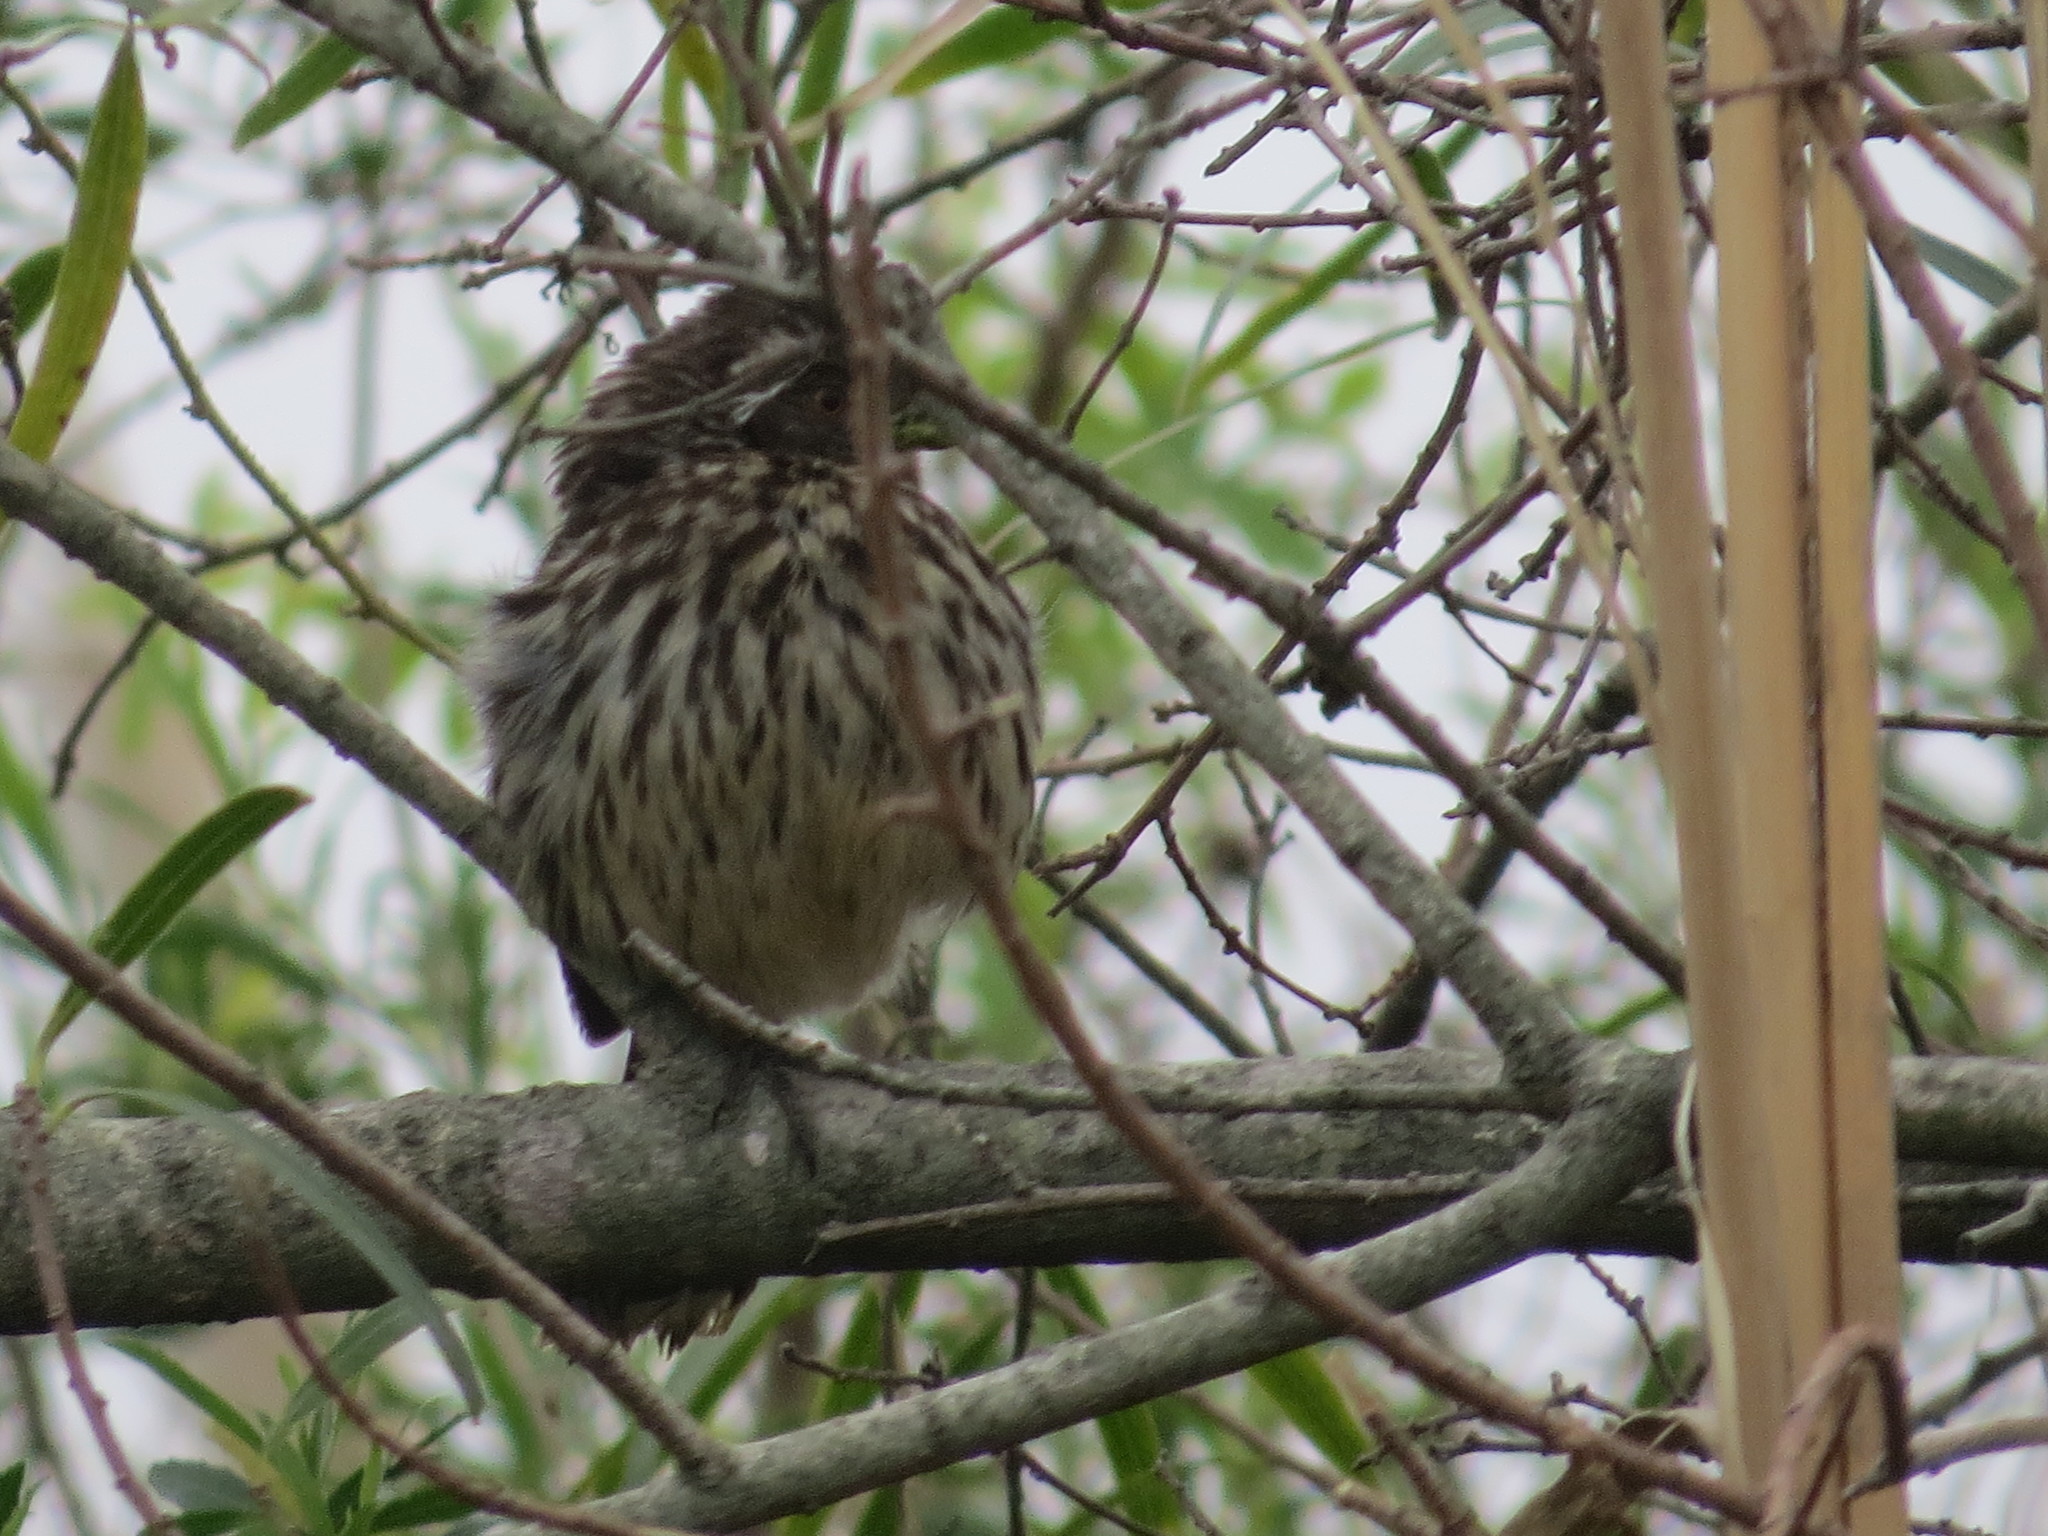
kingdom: Animalia
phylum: Chordata
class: Aves
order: Passeriformes
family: Cotingidae
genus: Phytotoma
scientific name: Phytotoma rutila
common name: White-tipped plantcutter
